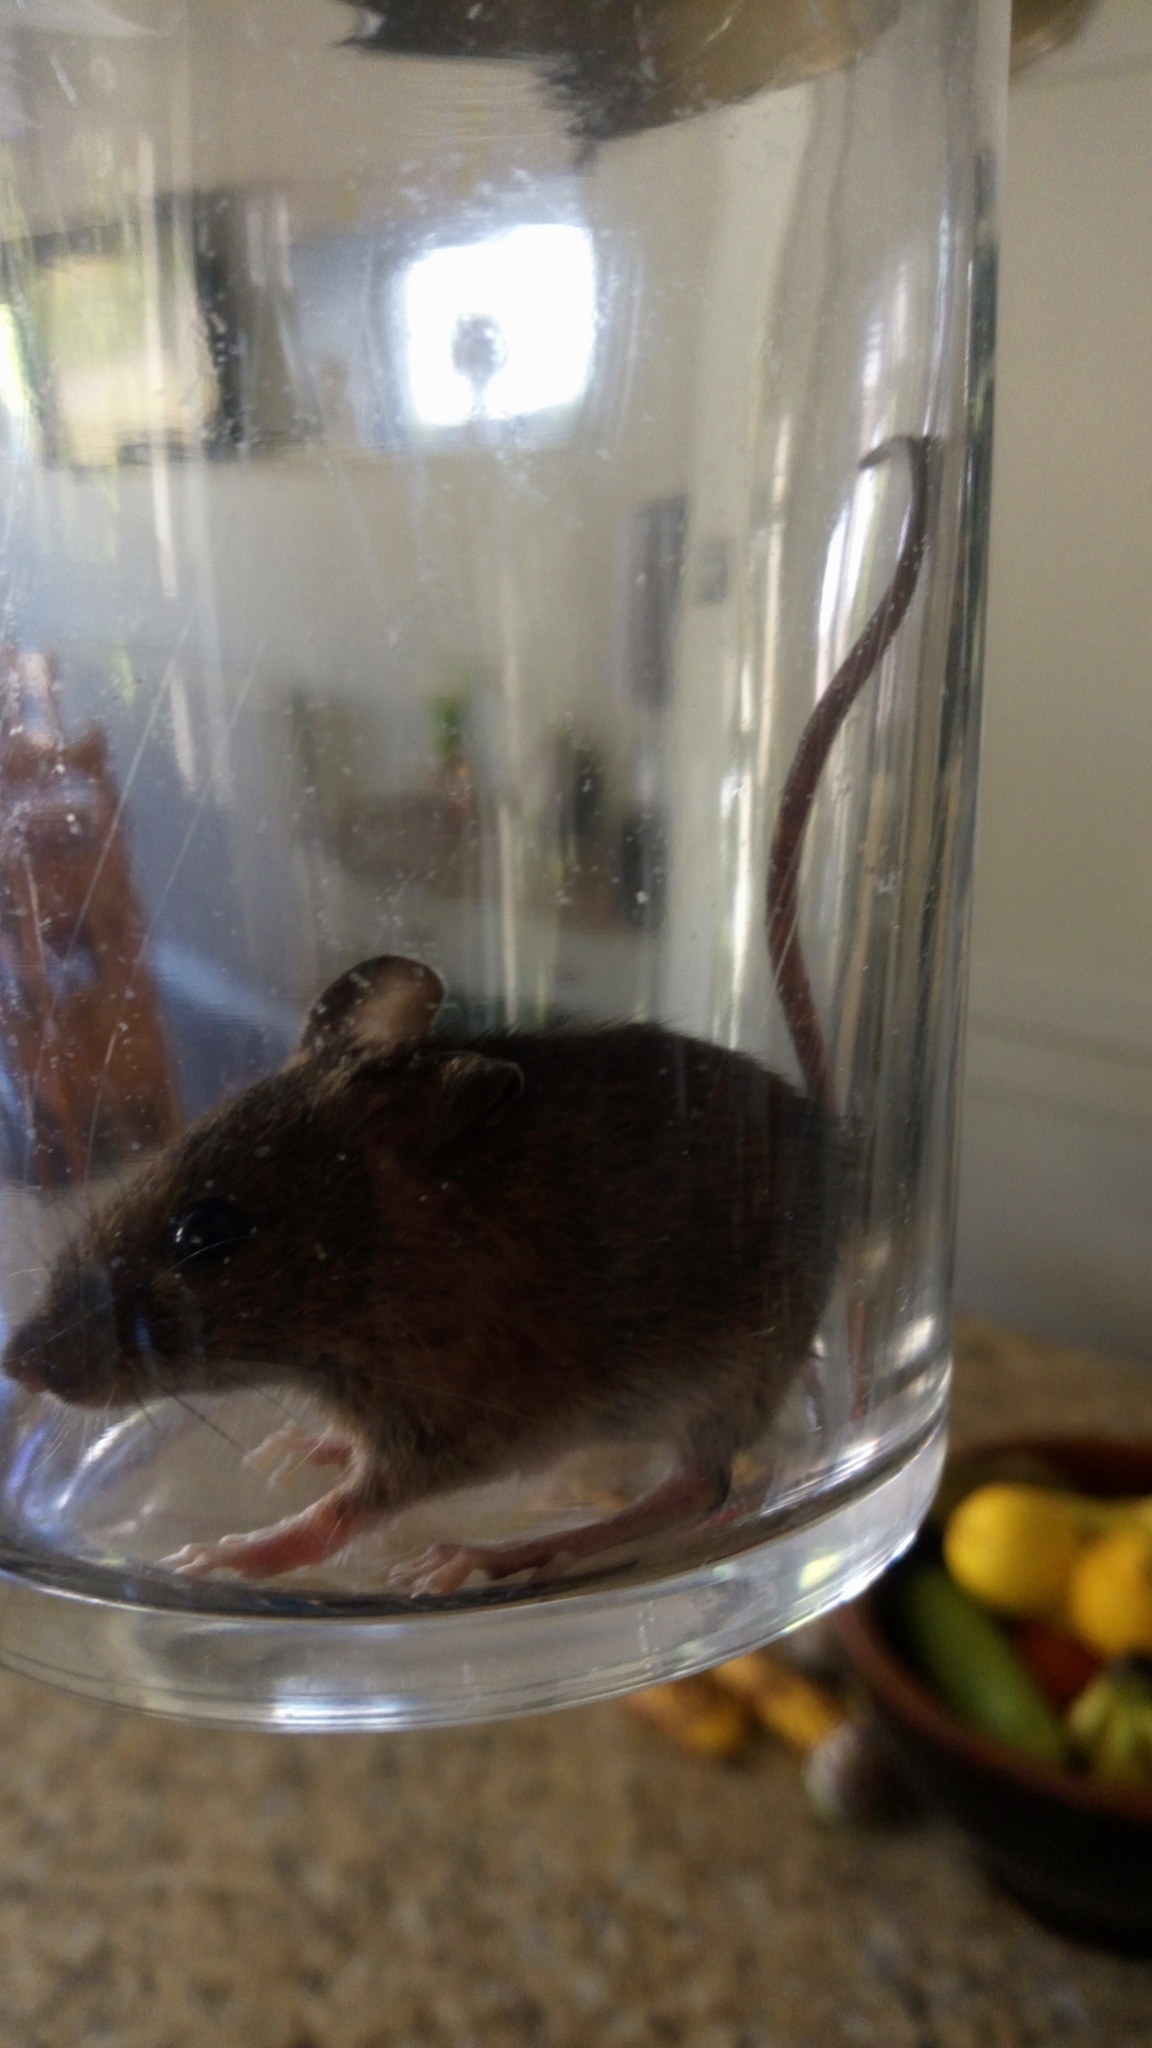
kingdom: Animalia
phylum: Chordata
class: Mammalia
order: Rodentia
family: Muridae
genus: Mus
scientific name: Mus musculus
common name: House mouse
